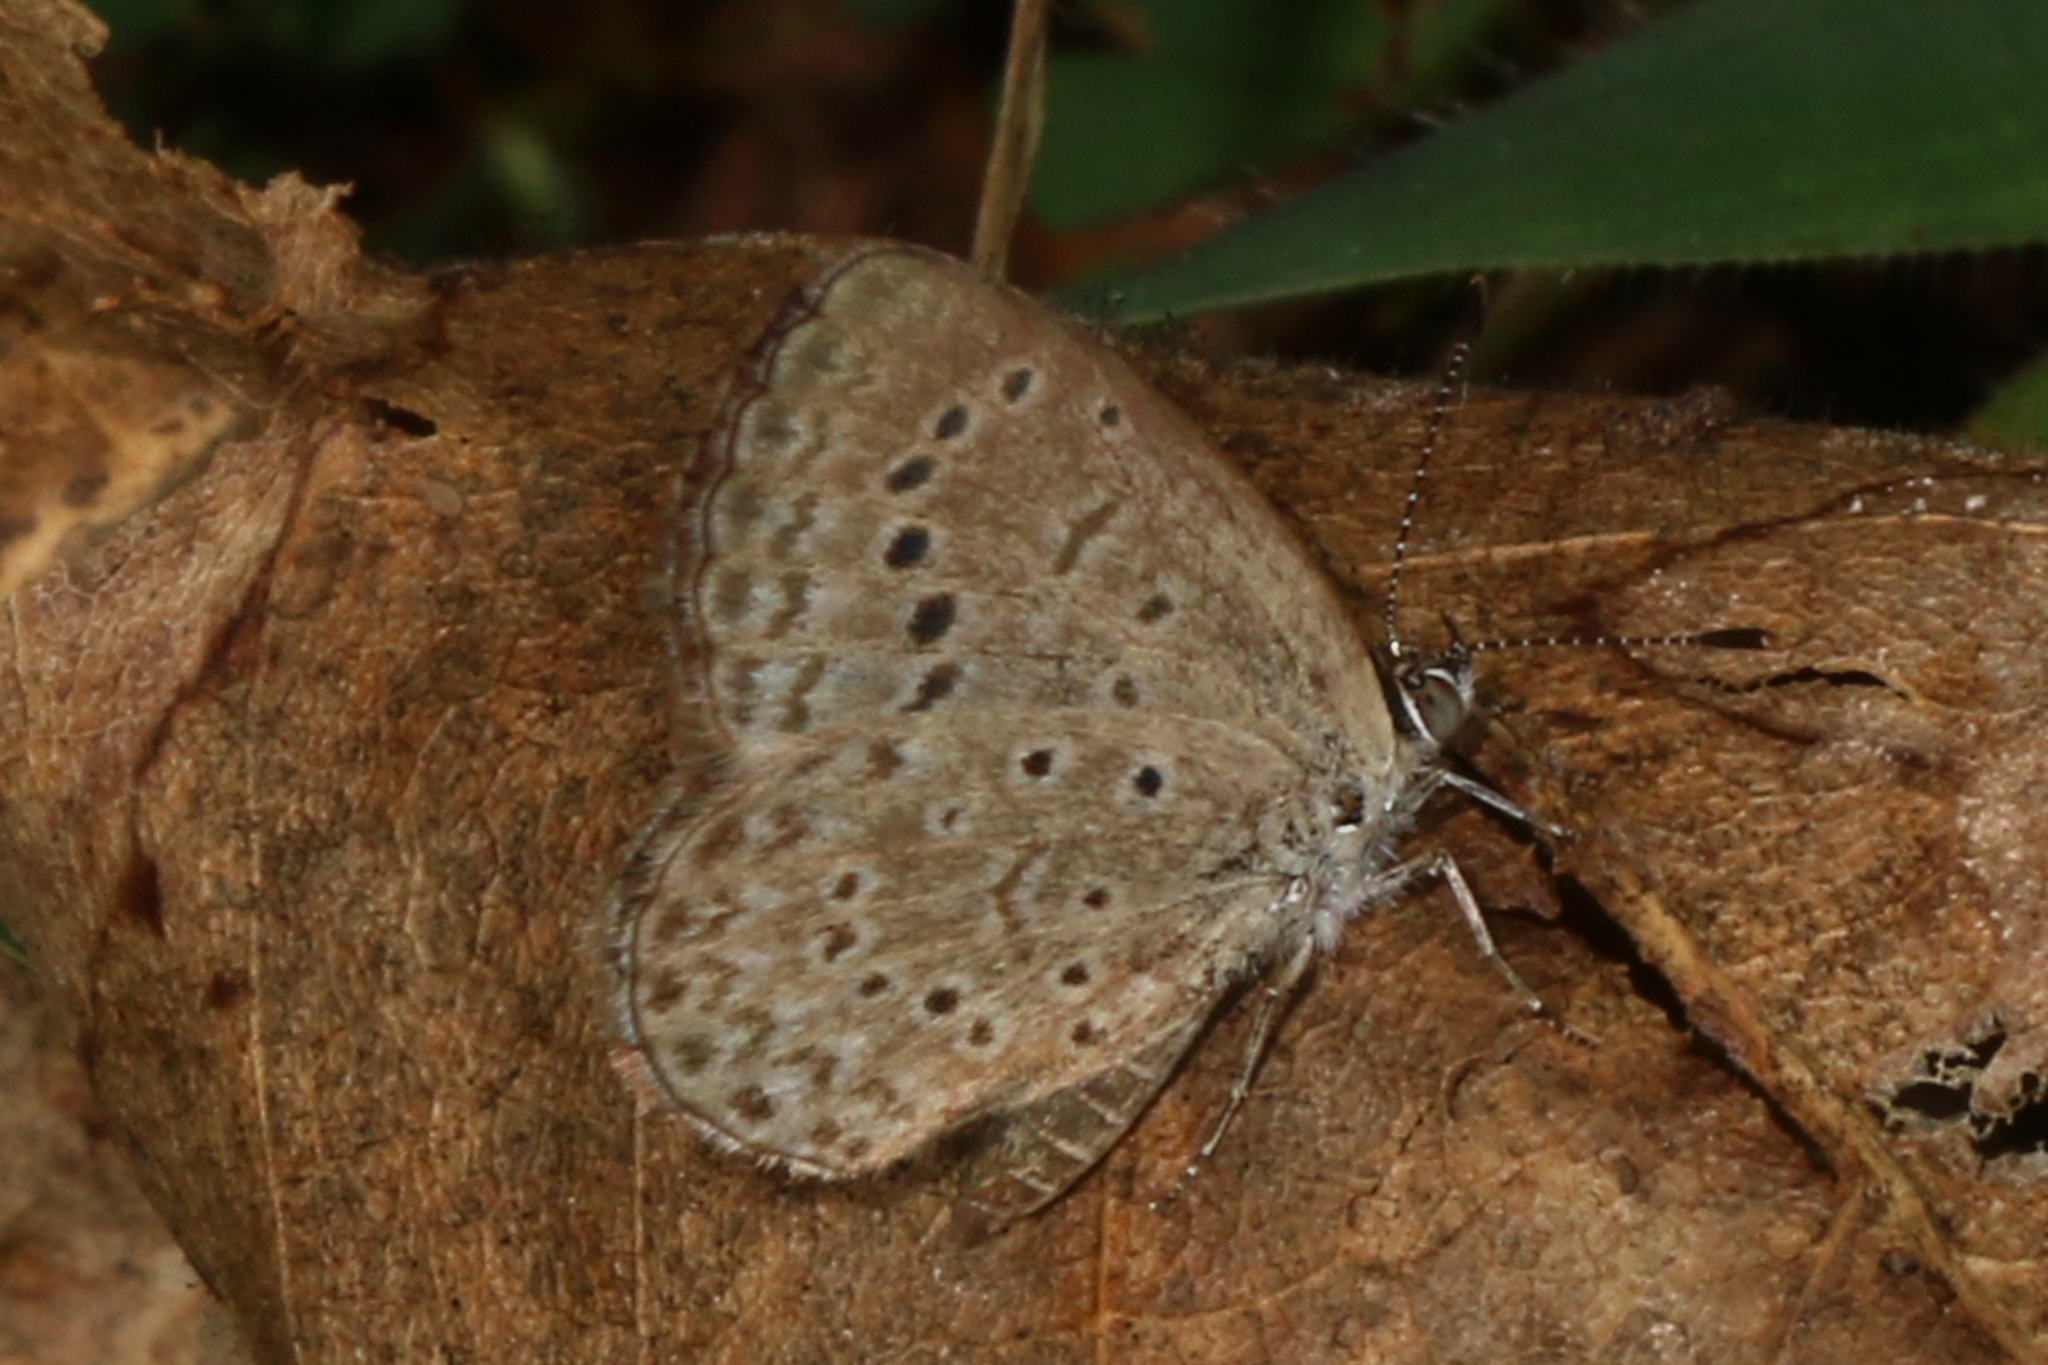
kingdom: Animalia
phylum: Arthropoda
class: Insecta
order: Lepidoptera
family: Lycaenidae
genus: Zizeeria
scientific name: Zizeeria knysna
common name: African grass blue
